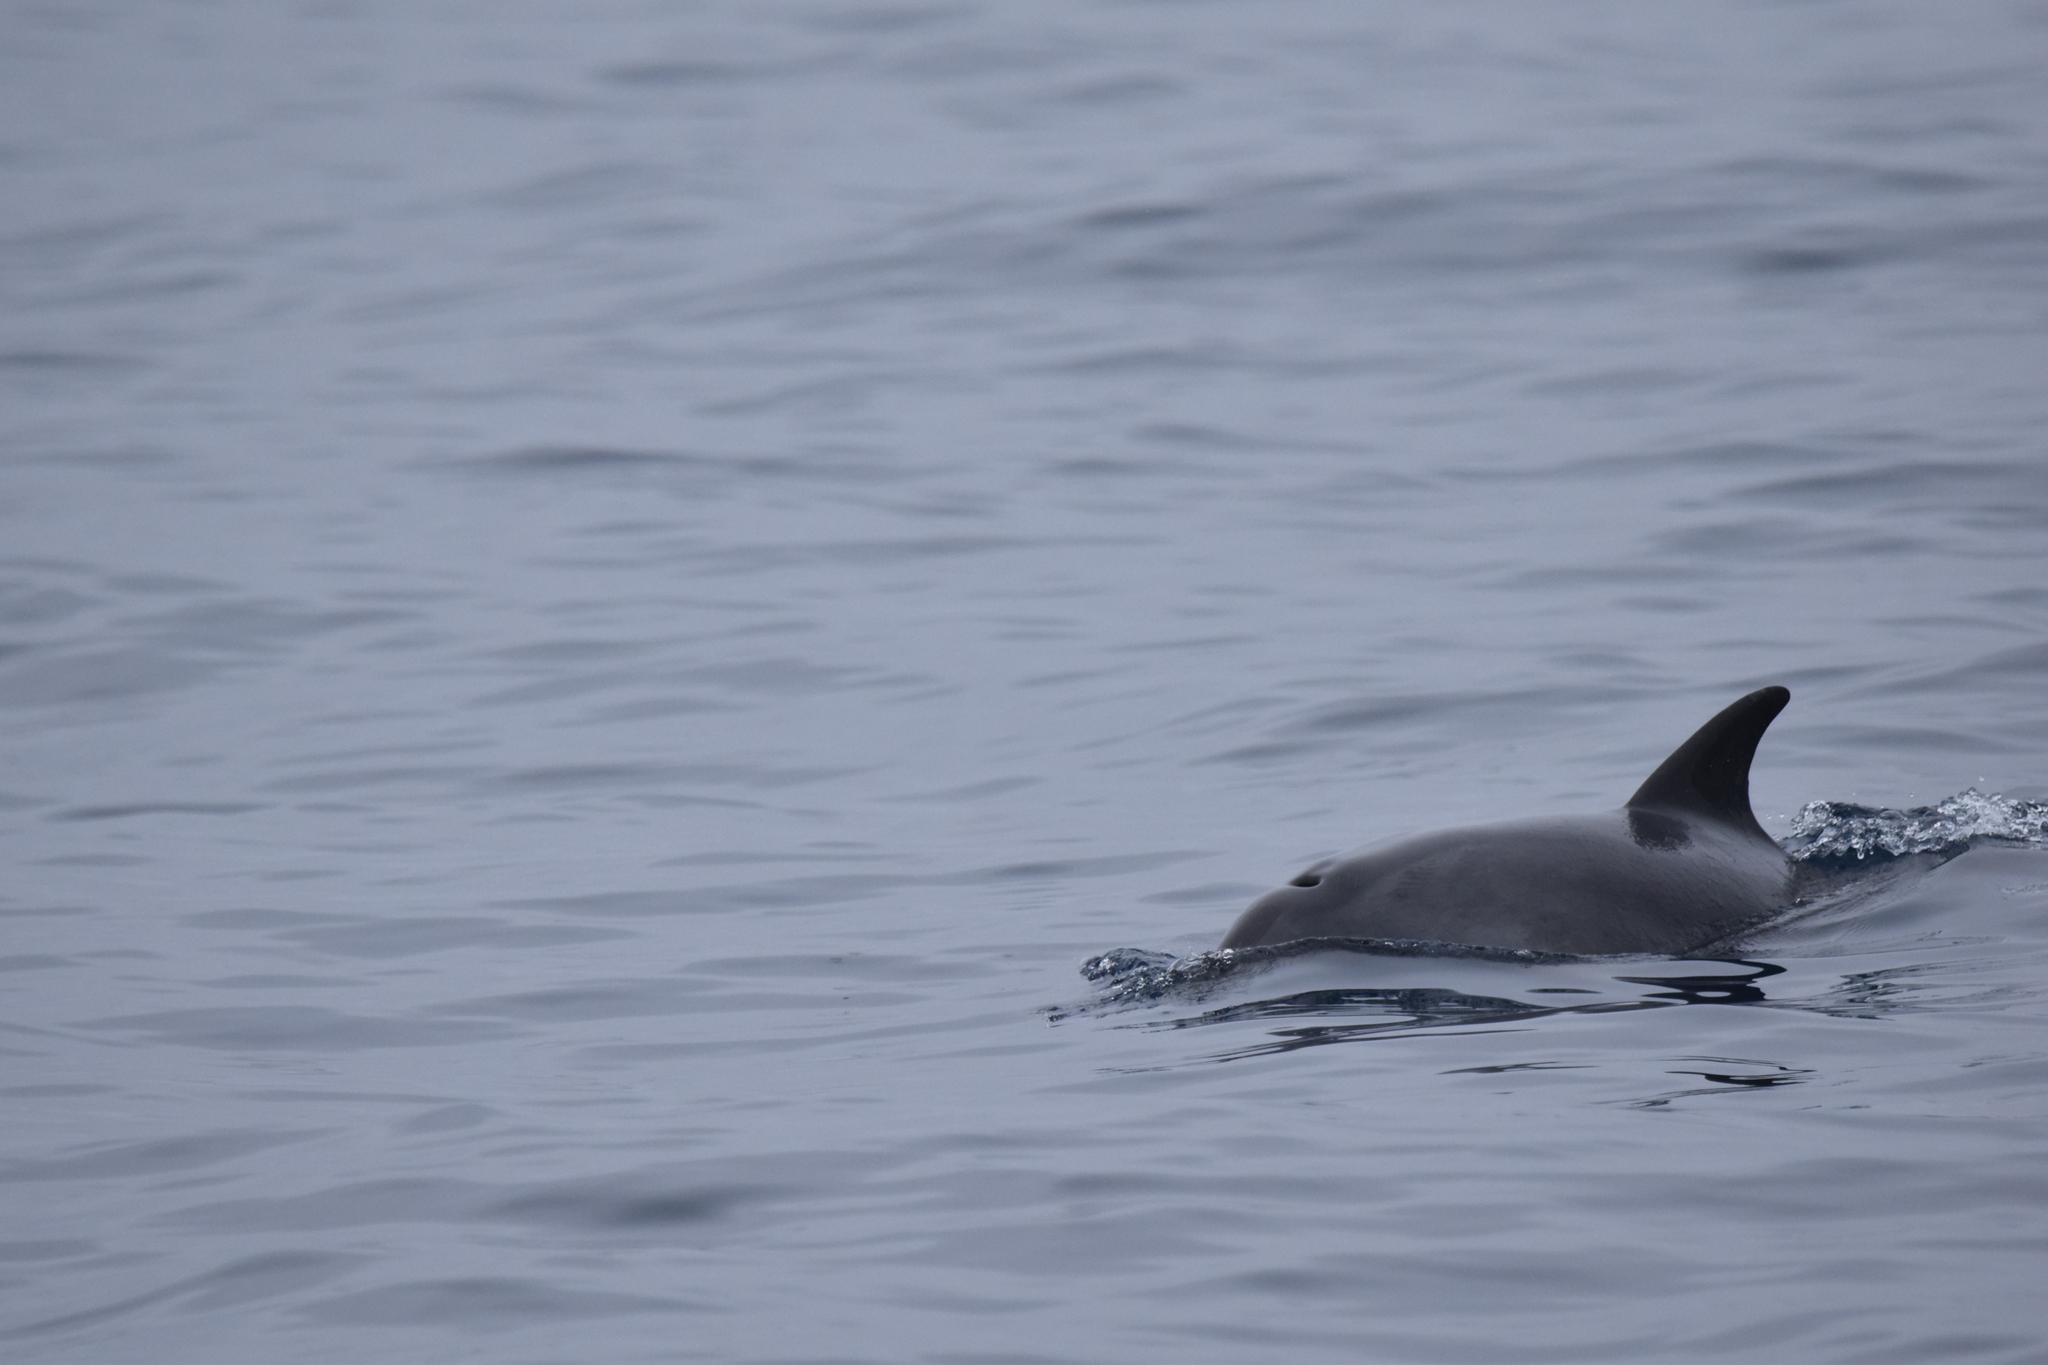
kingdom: Animalia
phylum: Chordata
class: Mammalia
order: Cetacea
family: Delphinidae
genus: Tursiops
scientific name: Tursiops truncatus
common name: Bottlenose dolphin
